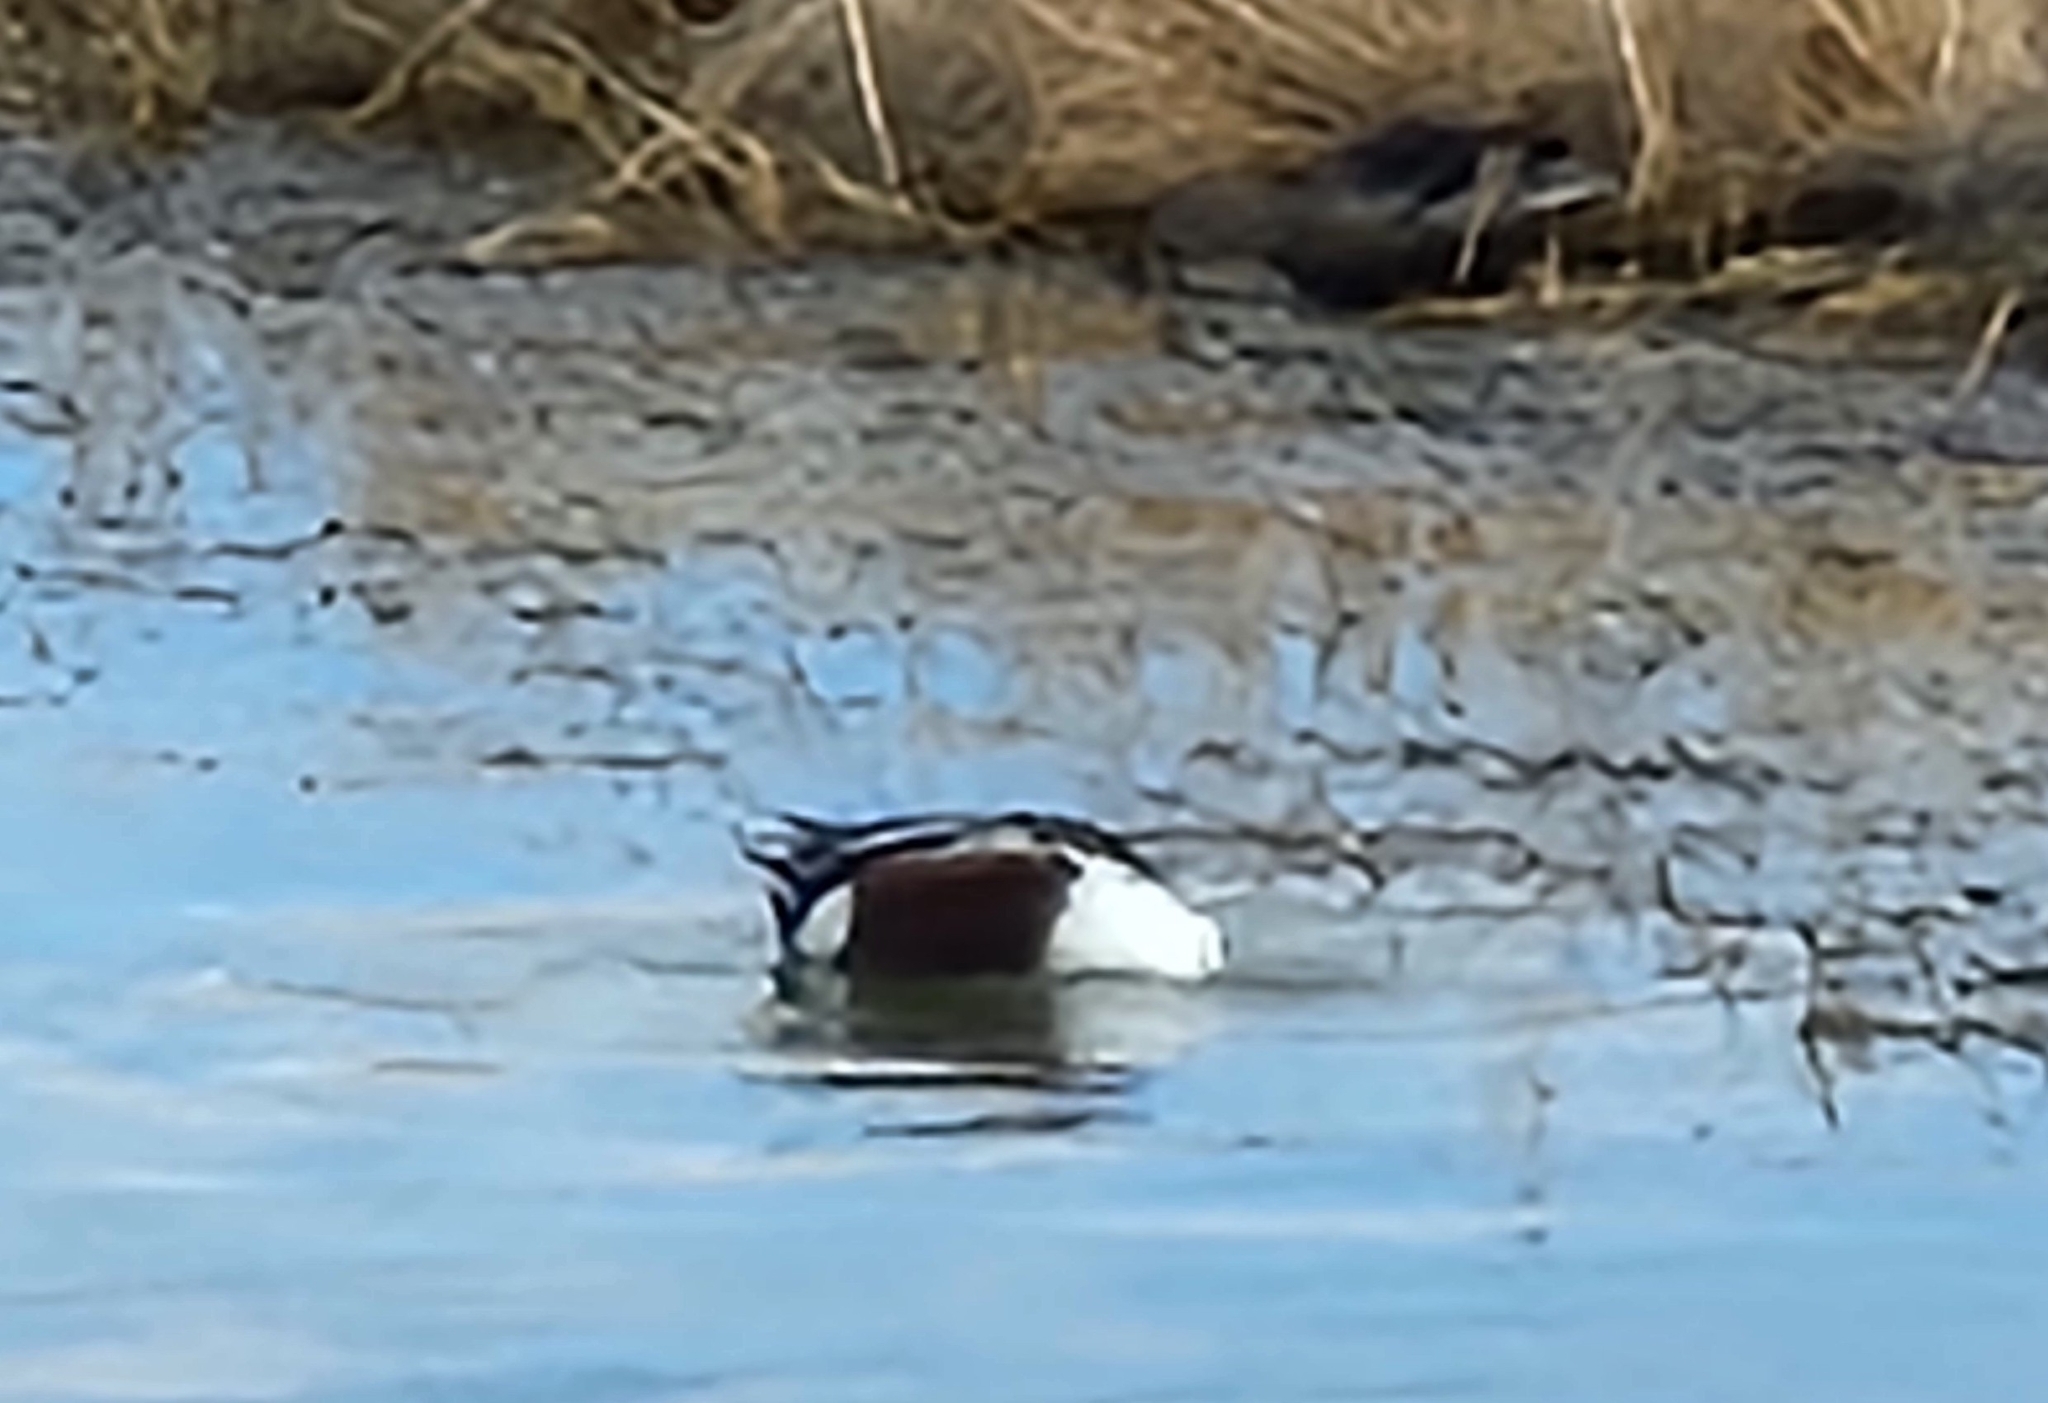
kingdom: Animalia
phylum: Chordata
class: Aves
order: Anseriformes
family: Anatidae
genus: Spatula
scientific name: Spatula clypeata
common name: Northern shoveler
